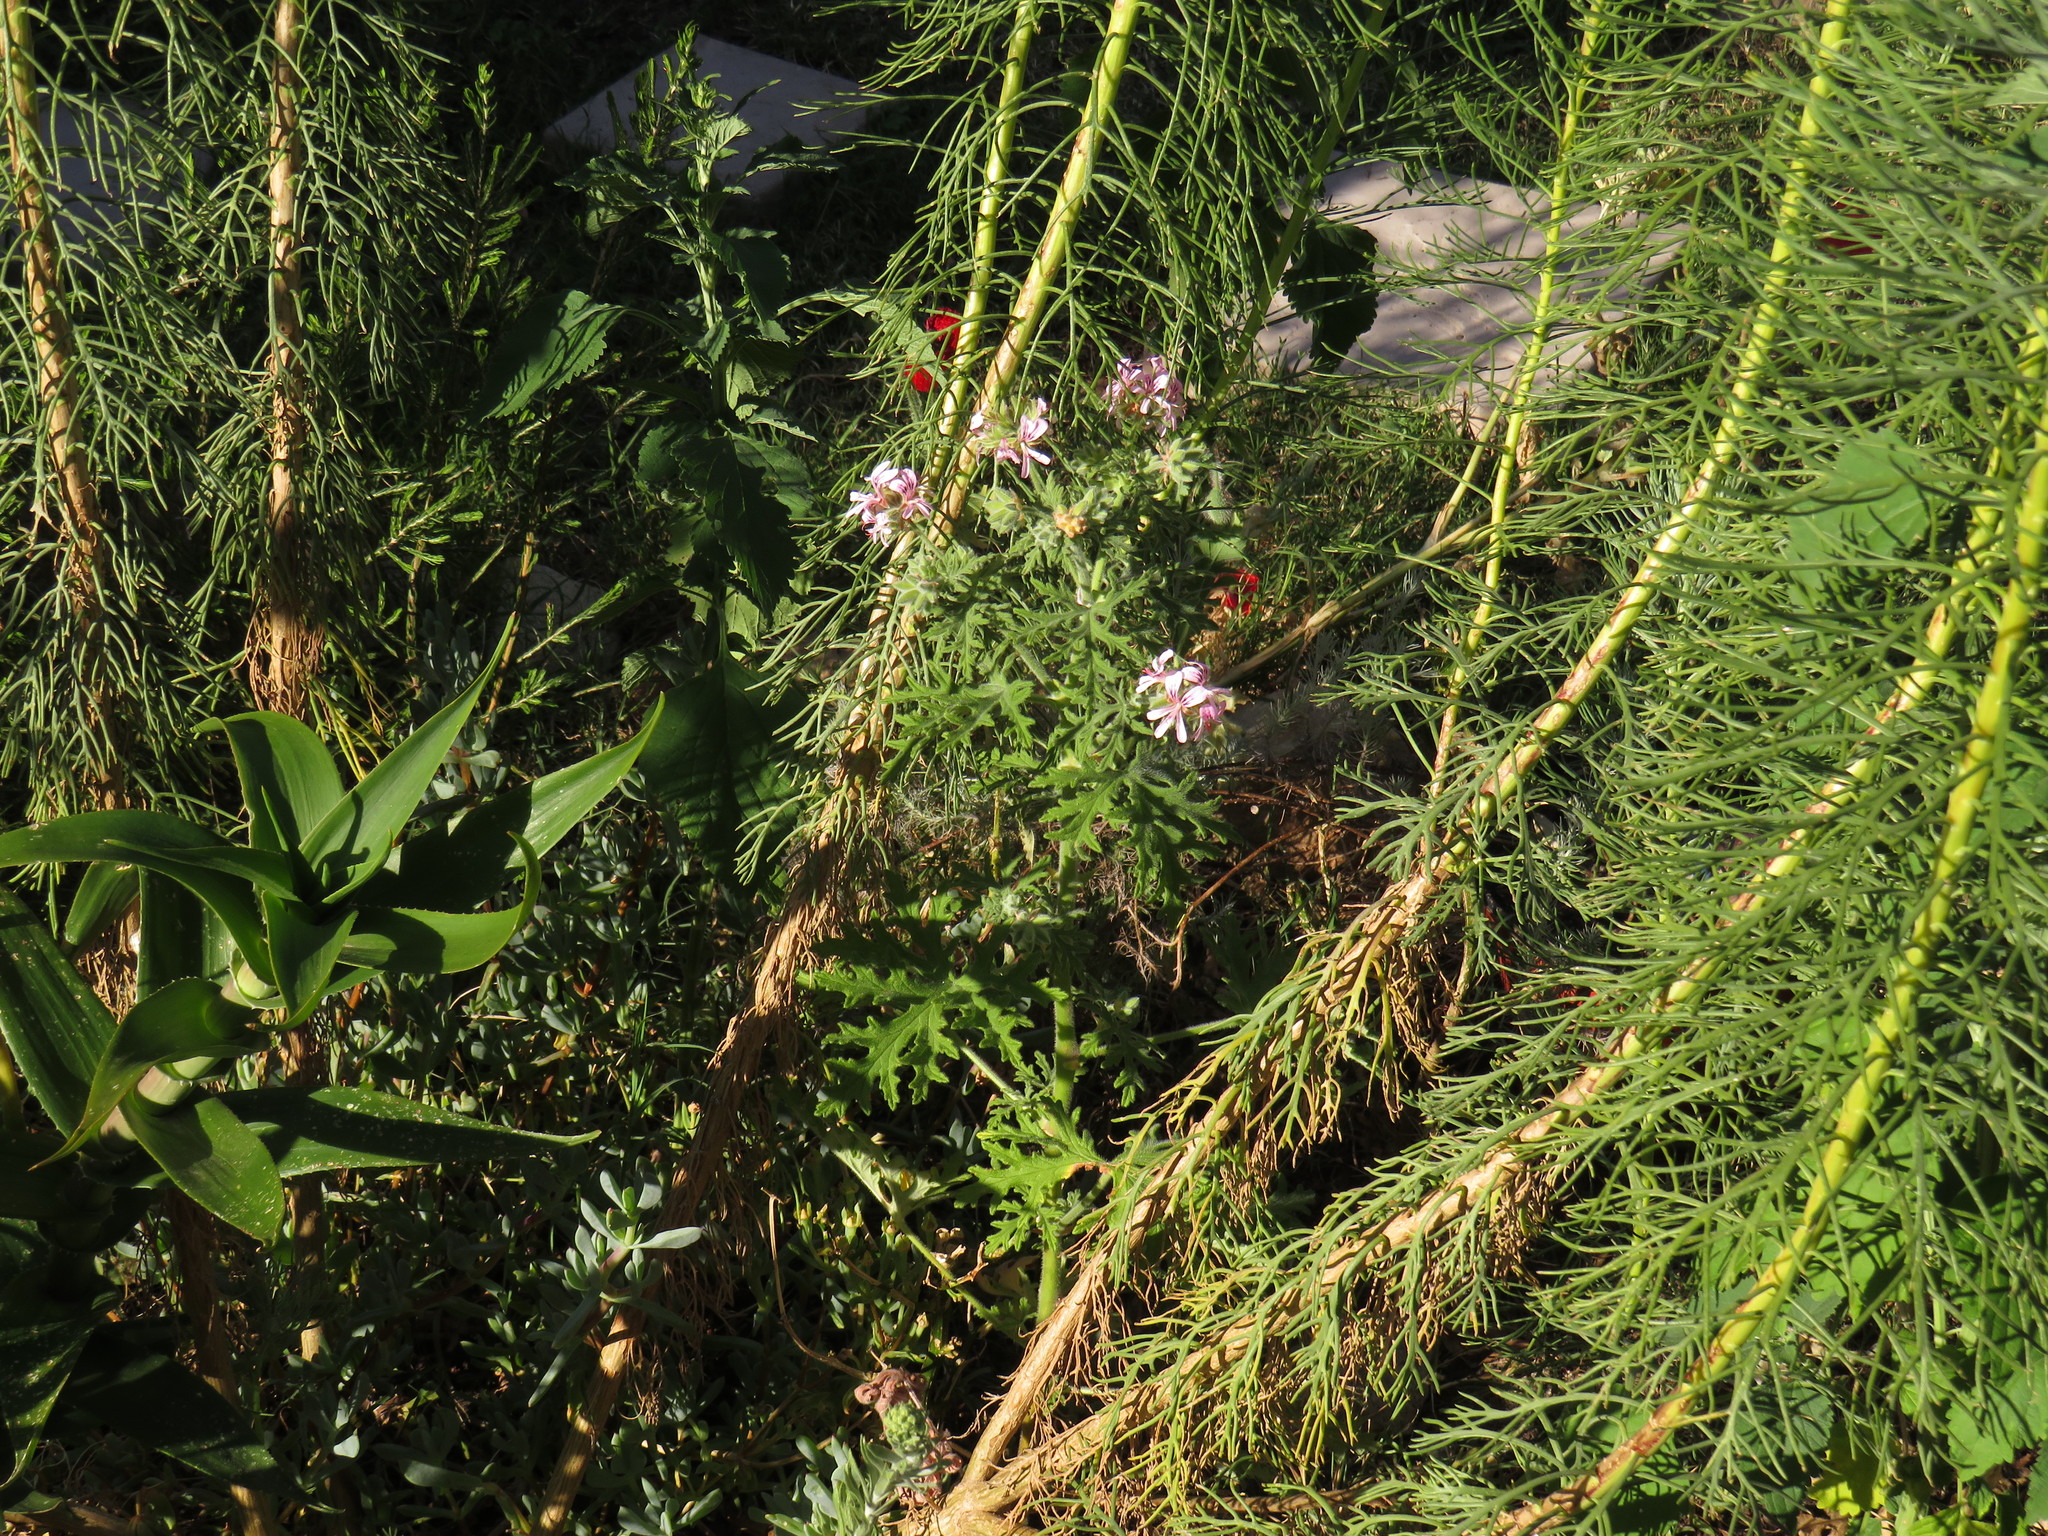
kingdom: Plantae
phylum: Tracheophyta
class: Magnoliopsida
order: Geraniales
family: Geraniaceae
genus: Pelargonium
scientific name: Pelargonium graveolens
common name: Rose-scent geranium
